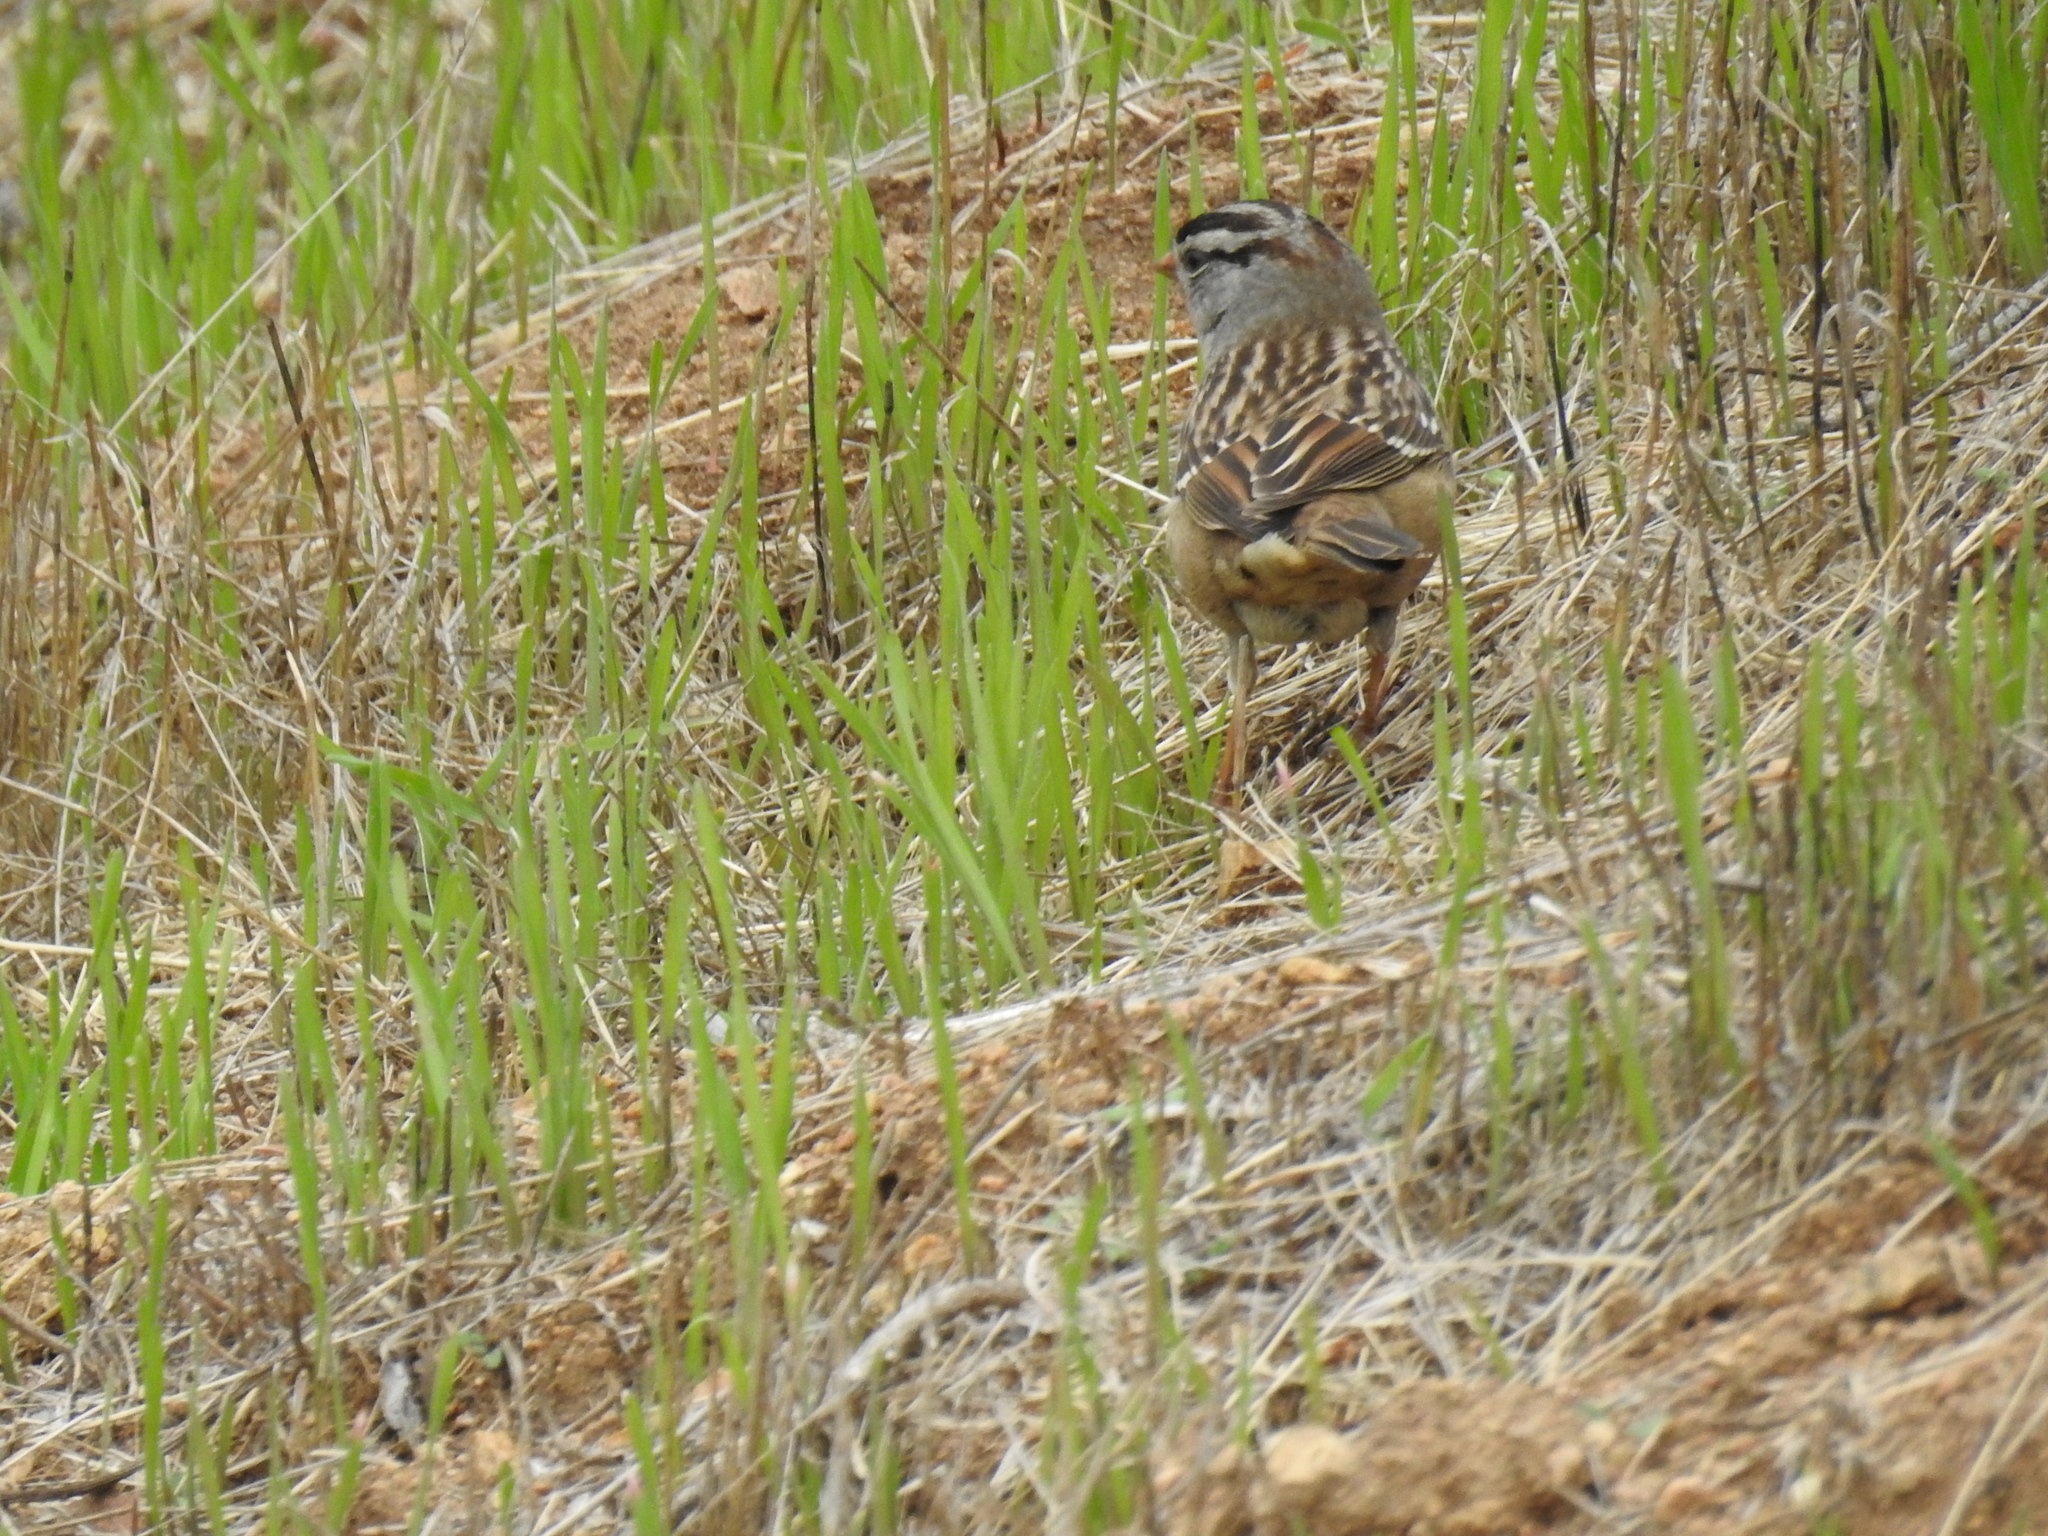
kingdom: Animalia
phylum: Chordata
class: Aves
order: Passeriformes
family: Passerellidae
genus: Zonotrichia
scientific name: Zonotrichia leucophrys
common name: White-crowned sparrow
